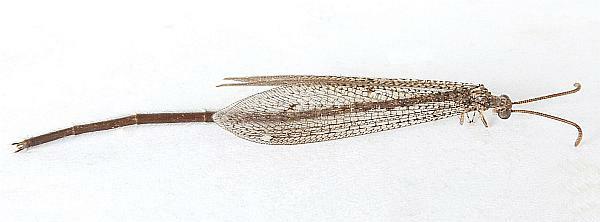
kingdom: Animalia
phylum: Arthropoda
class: Insecta
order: Neuroptera
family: Myrmeleontidae
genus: Brachynemurus
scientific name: Brachynemurus longicaudus
